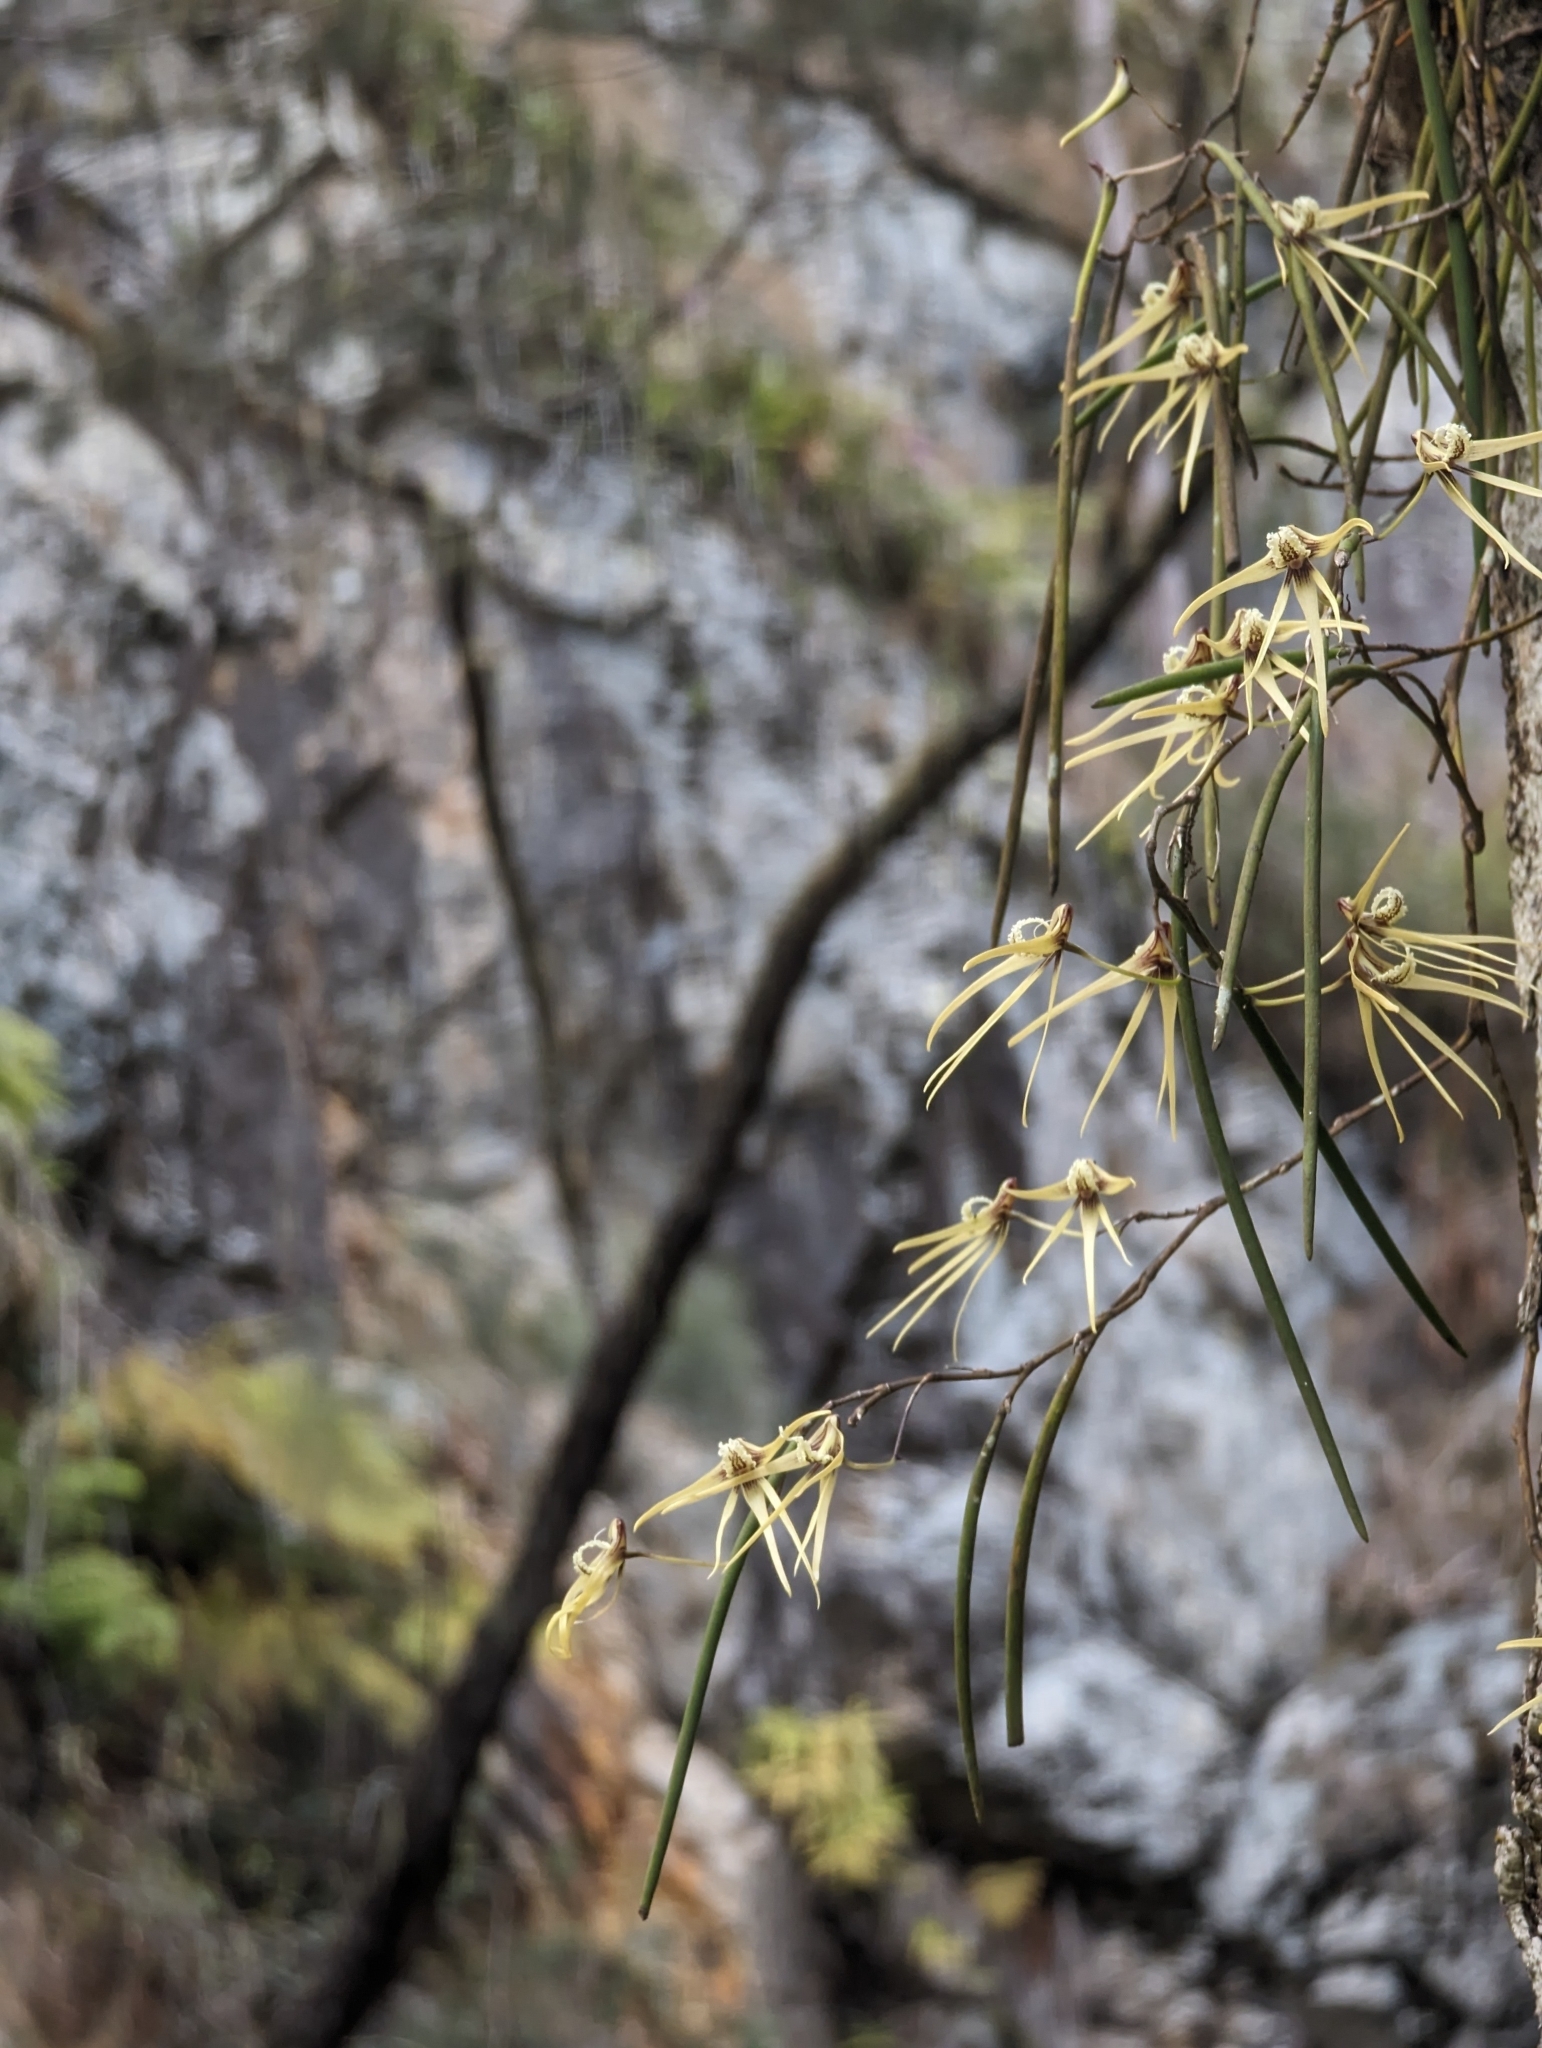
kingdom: Plantae
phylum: Tracheophyta
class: Liliopsida
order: Asparagales
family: Orchidaceae
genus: Dendrobium
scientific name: Dendrobium teretifolium
